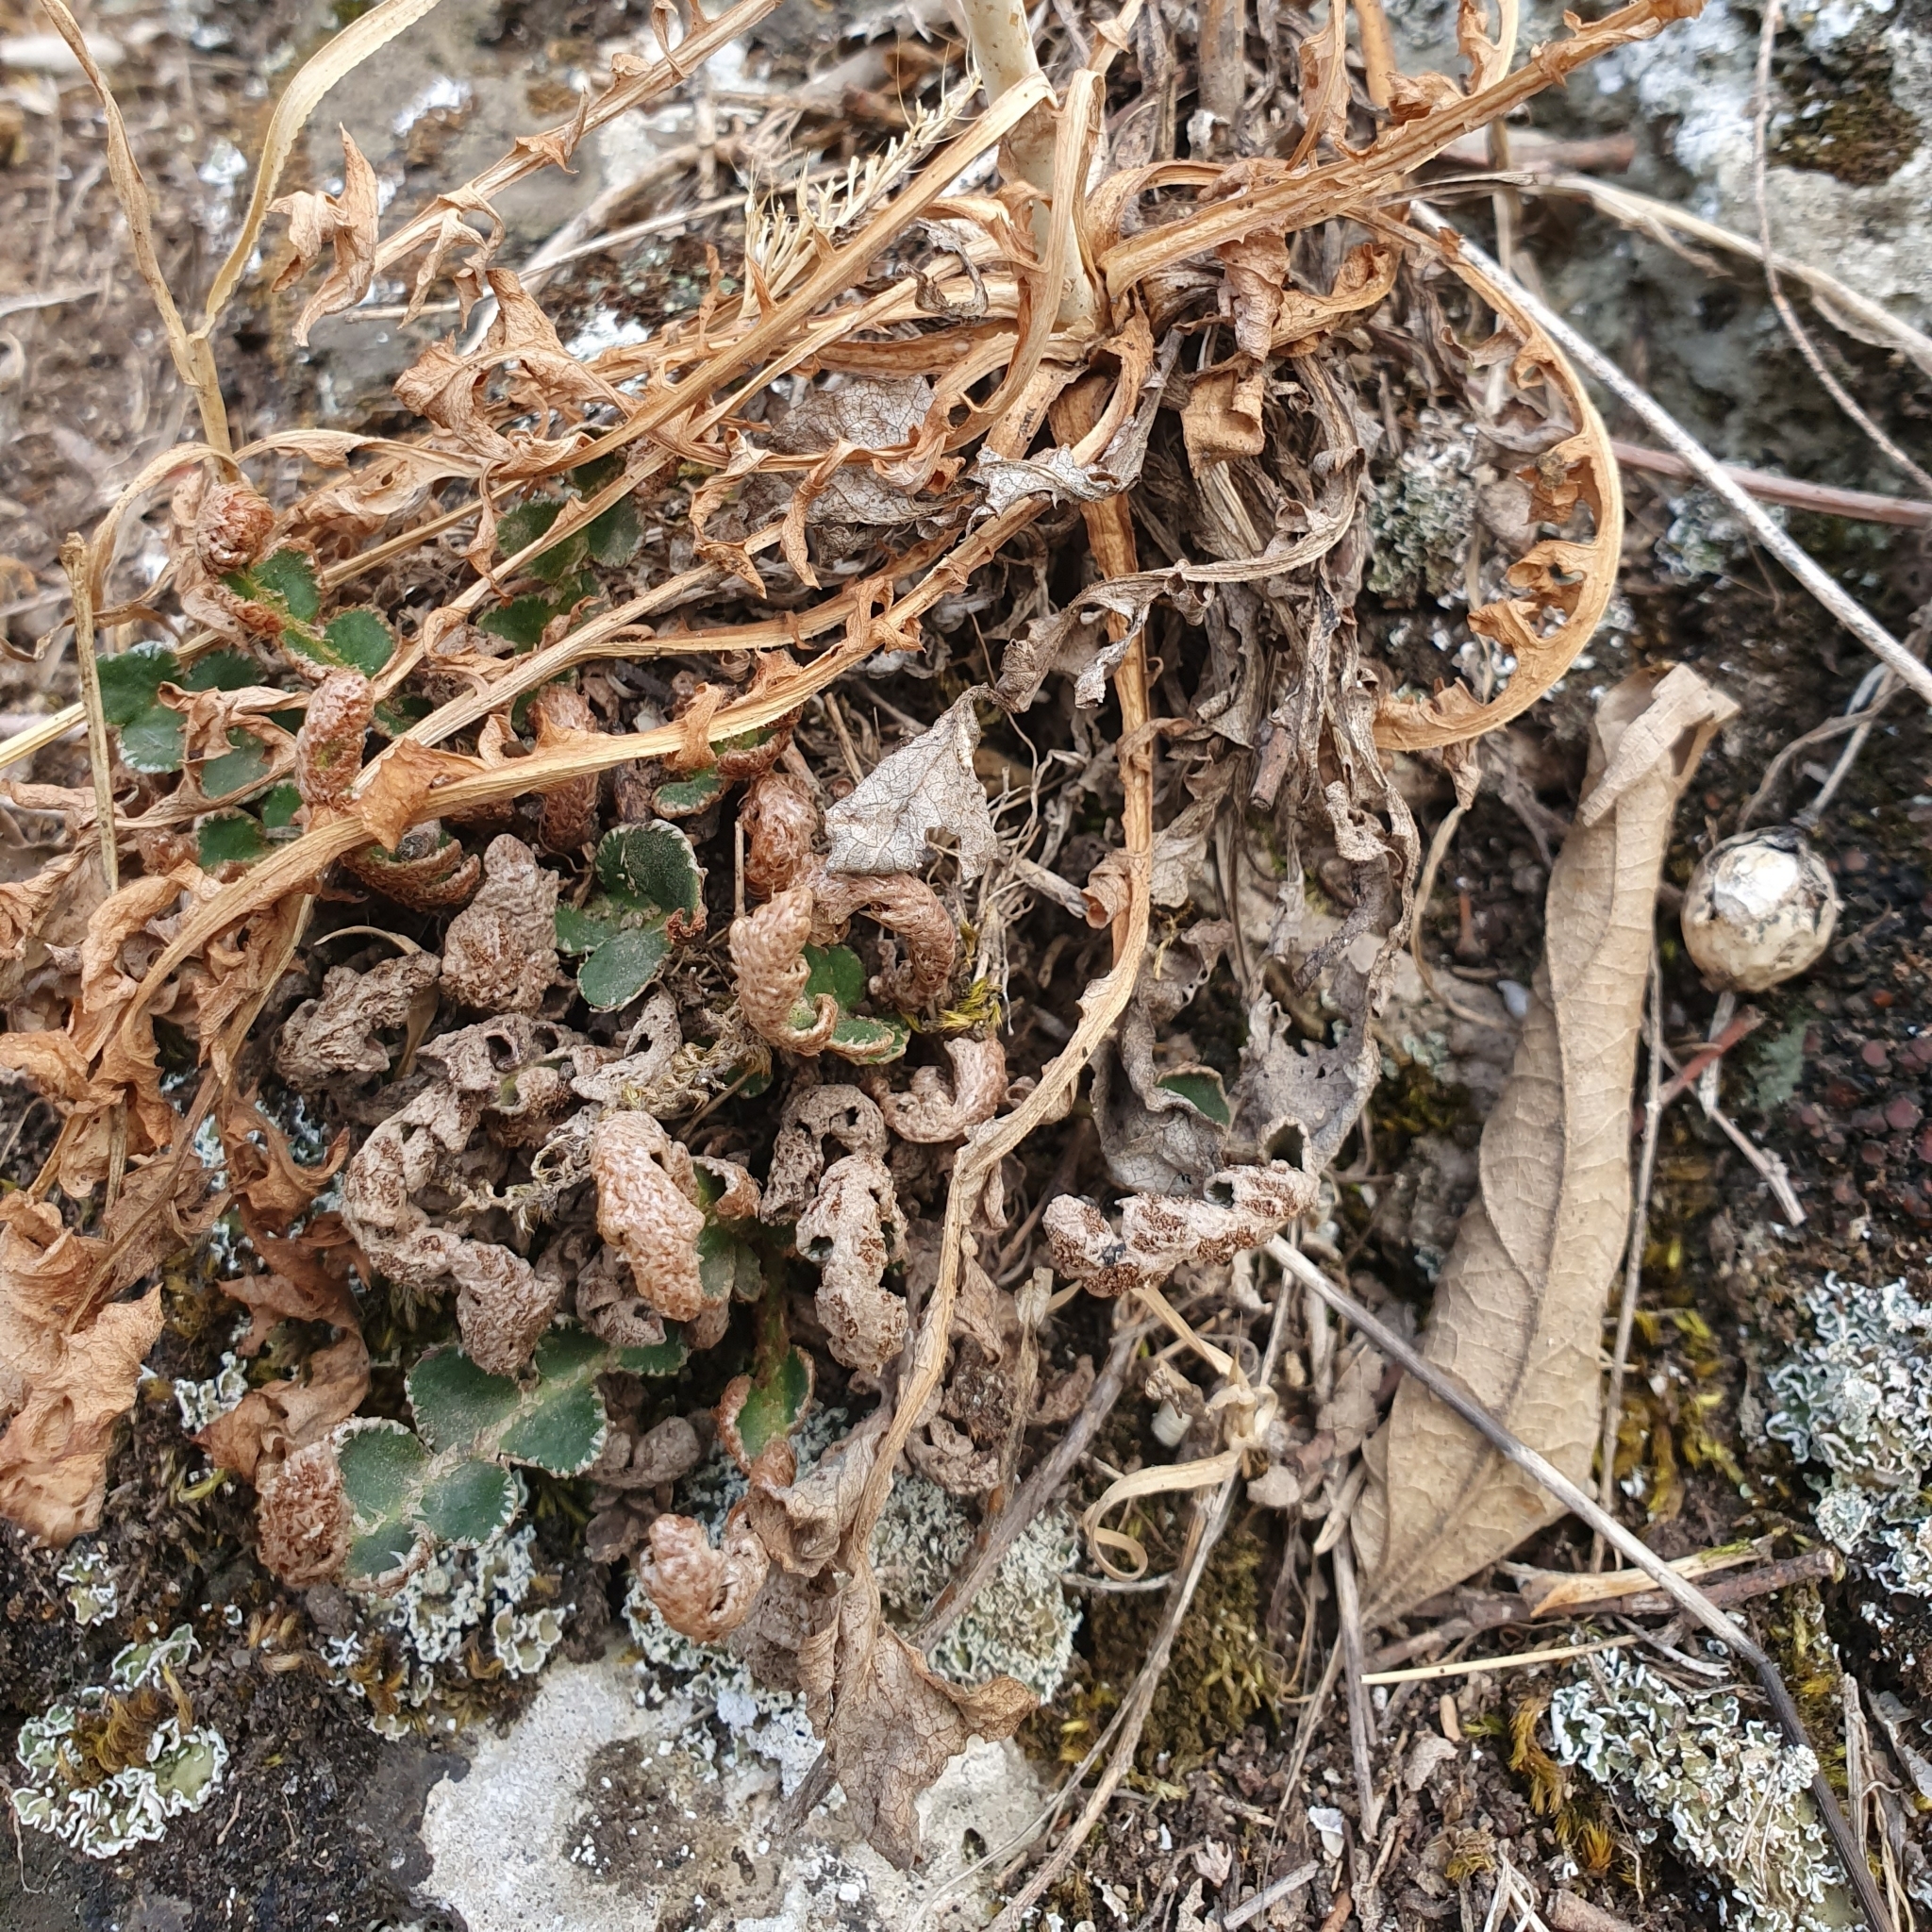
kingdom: Plantae
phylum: Tracheophyta
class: Polypodiopsida
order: Polypodiales
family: Aspleniaceae
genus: Asplenium
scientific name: Asplenium ceterach
